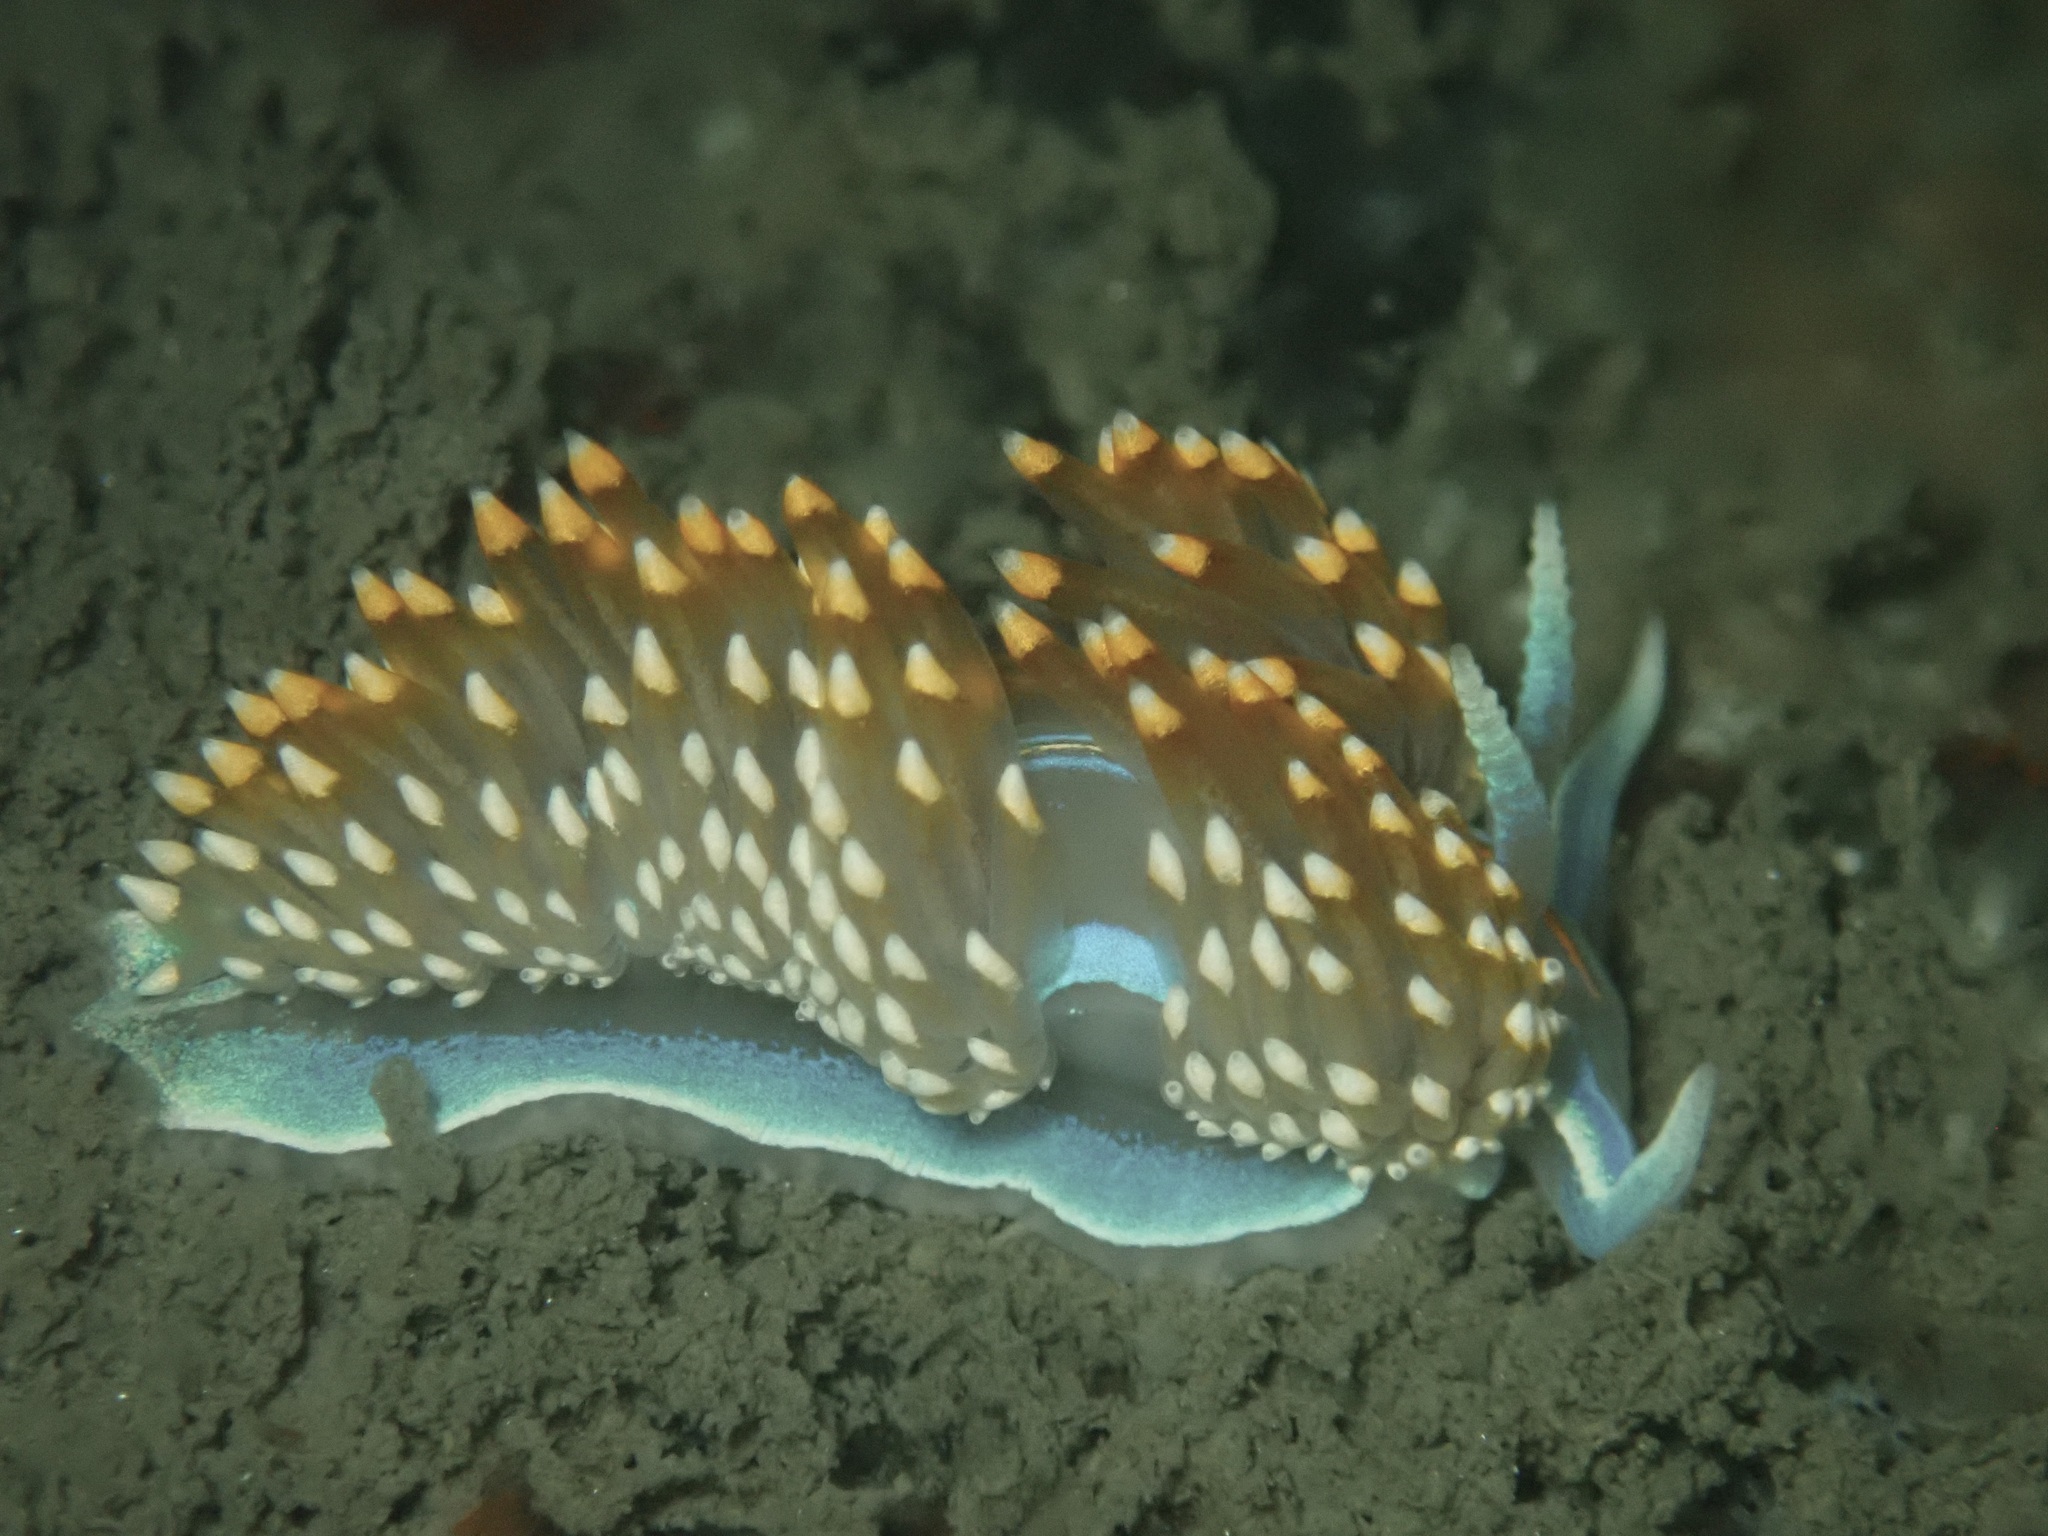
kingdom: Animalia
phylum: Mollusca
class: Gastropoda
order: Nudibranchia
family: Myrrhinidae
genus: Hermissenda
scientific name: Hermissenda opalescens
